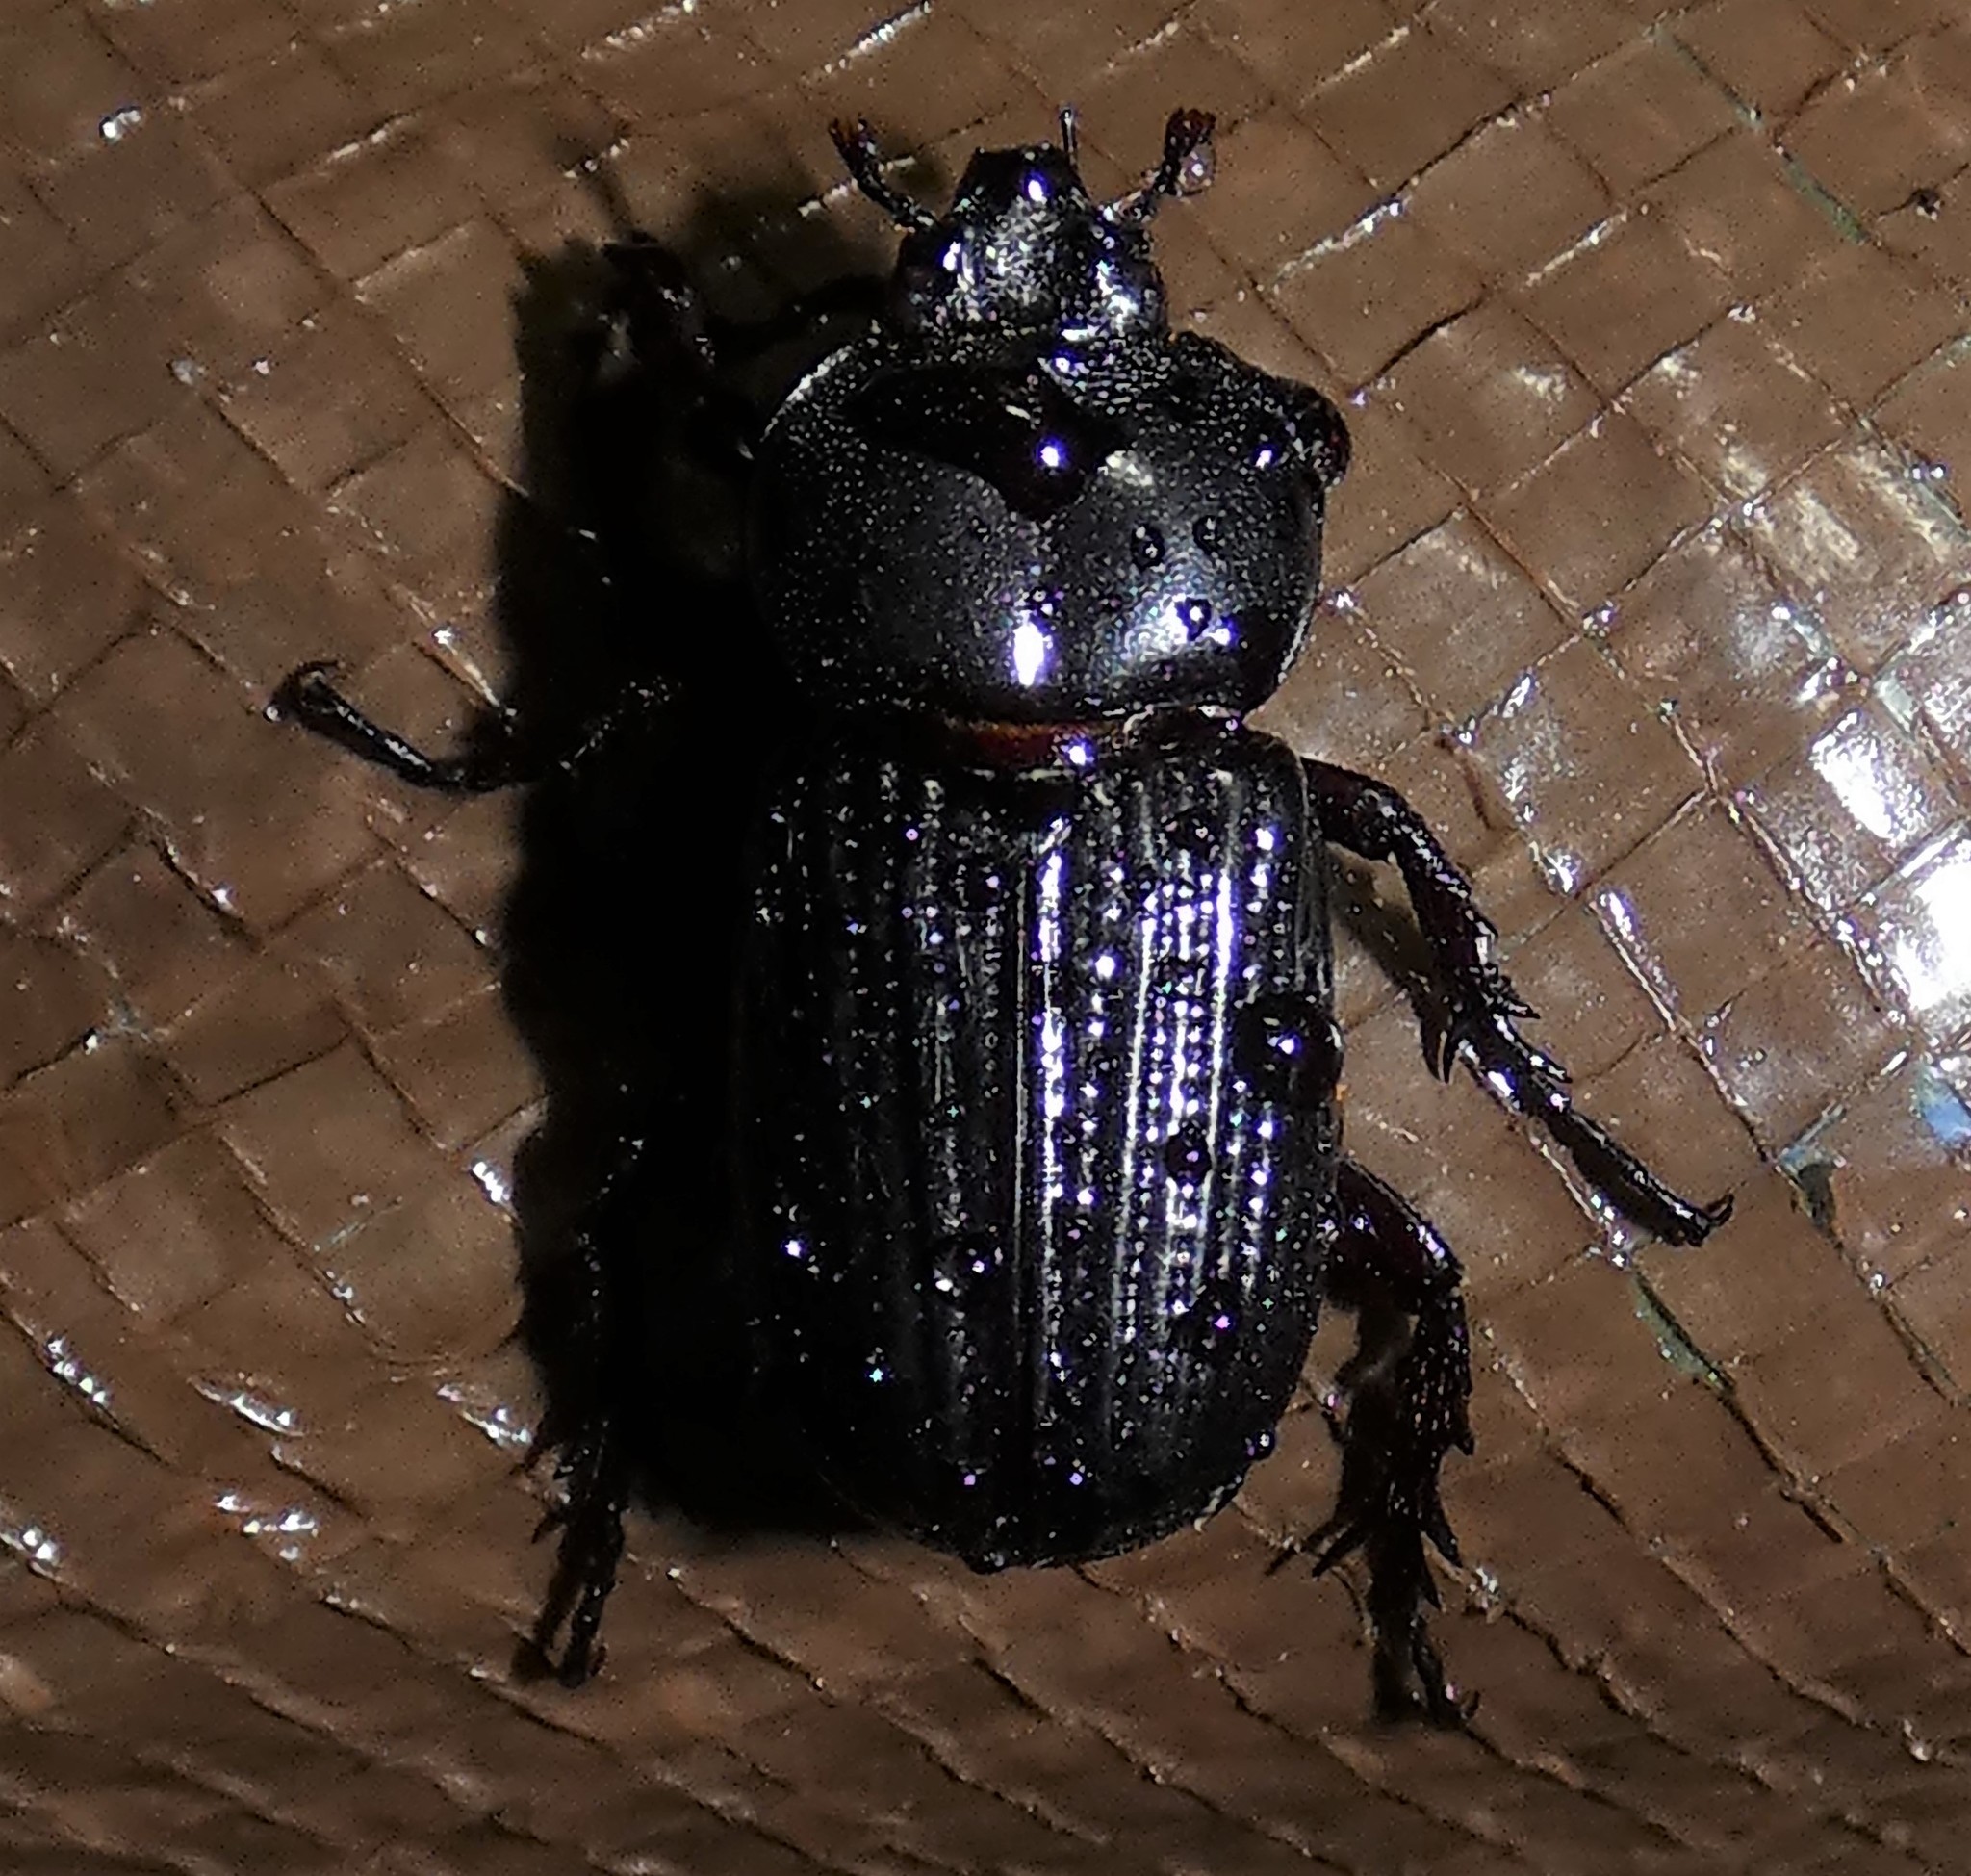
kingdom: Animalia
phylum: Arthropoda
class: Insecta
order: Coleoptera
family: Scarabaeidae
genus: Phileurus
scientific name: Phileurus valgus
